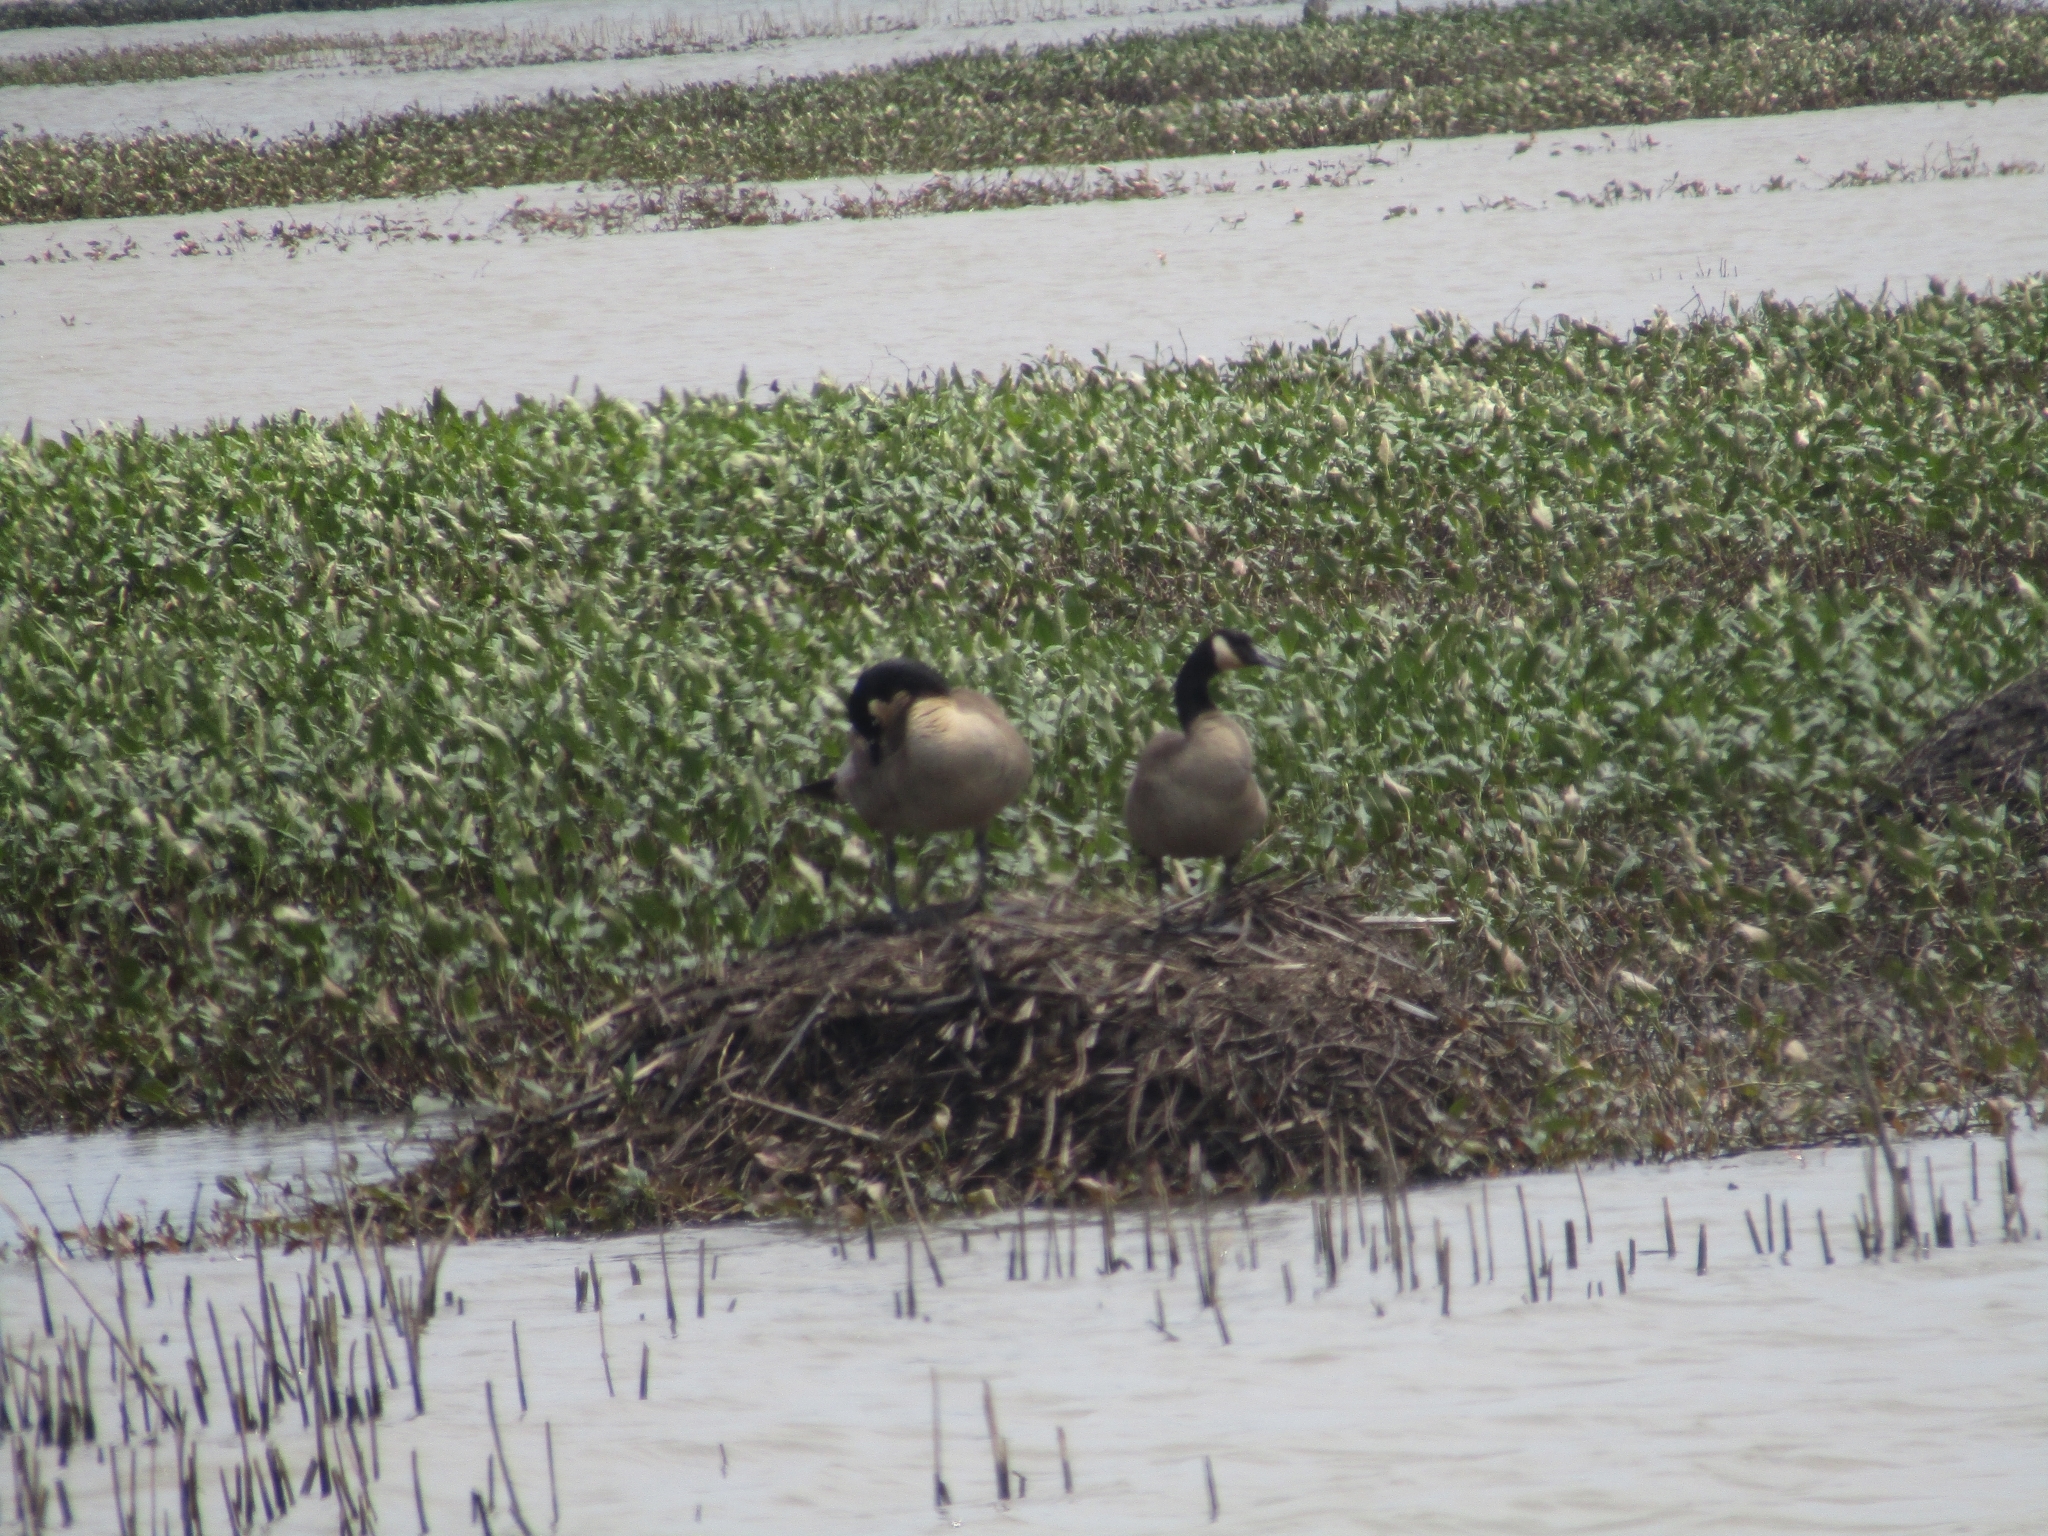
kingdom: Animalia
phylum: Chordata
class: Aves
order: Anseriformes
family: Anatidae
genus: Branta
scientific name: Branta canadensis
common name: Canada goose
